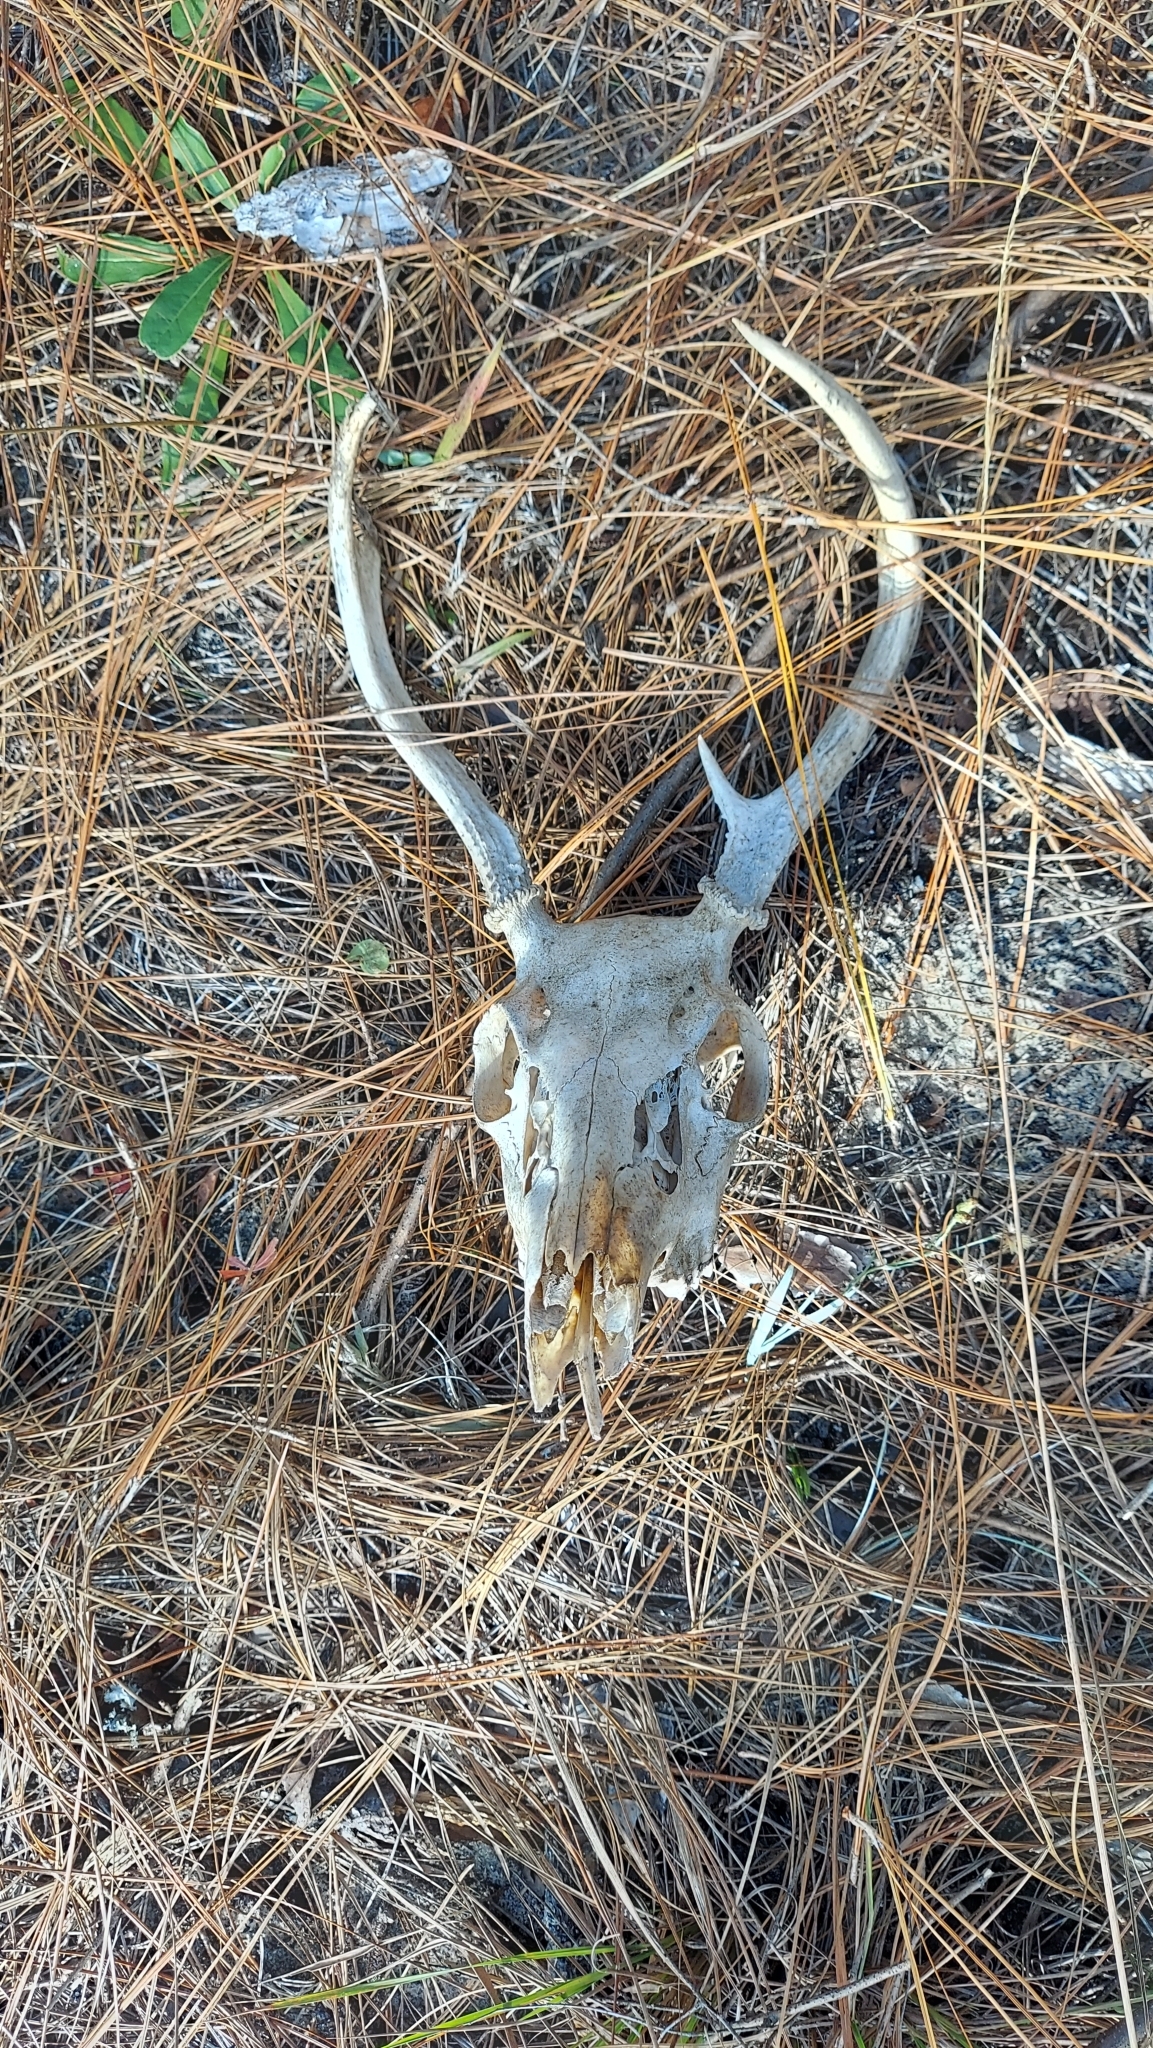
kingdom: Animalia
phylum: Chordata
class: Mammalia
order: Artiodactyla
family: Cervidae
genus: Odocoileus
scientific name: Odocoileus virginianus
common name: White-tailed deer
